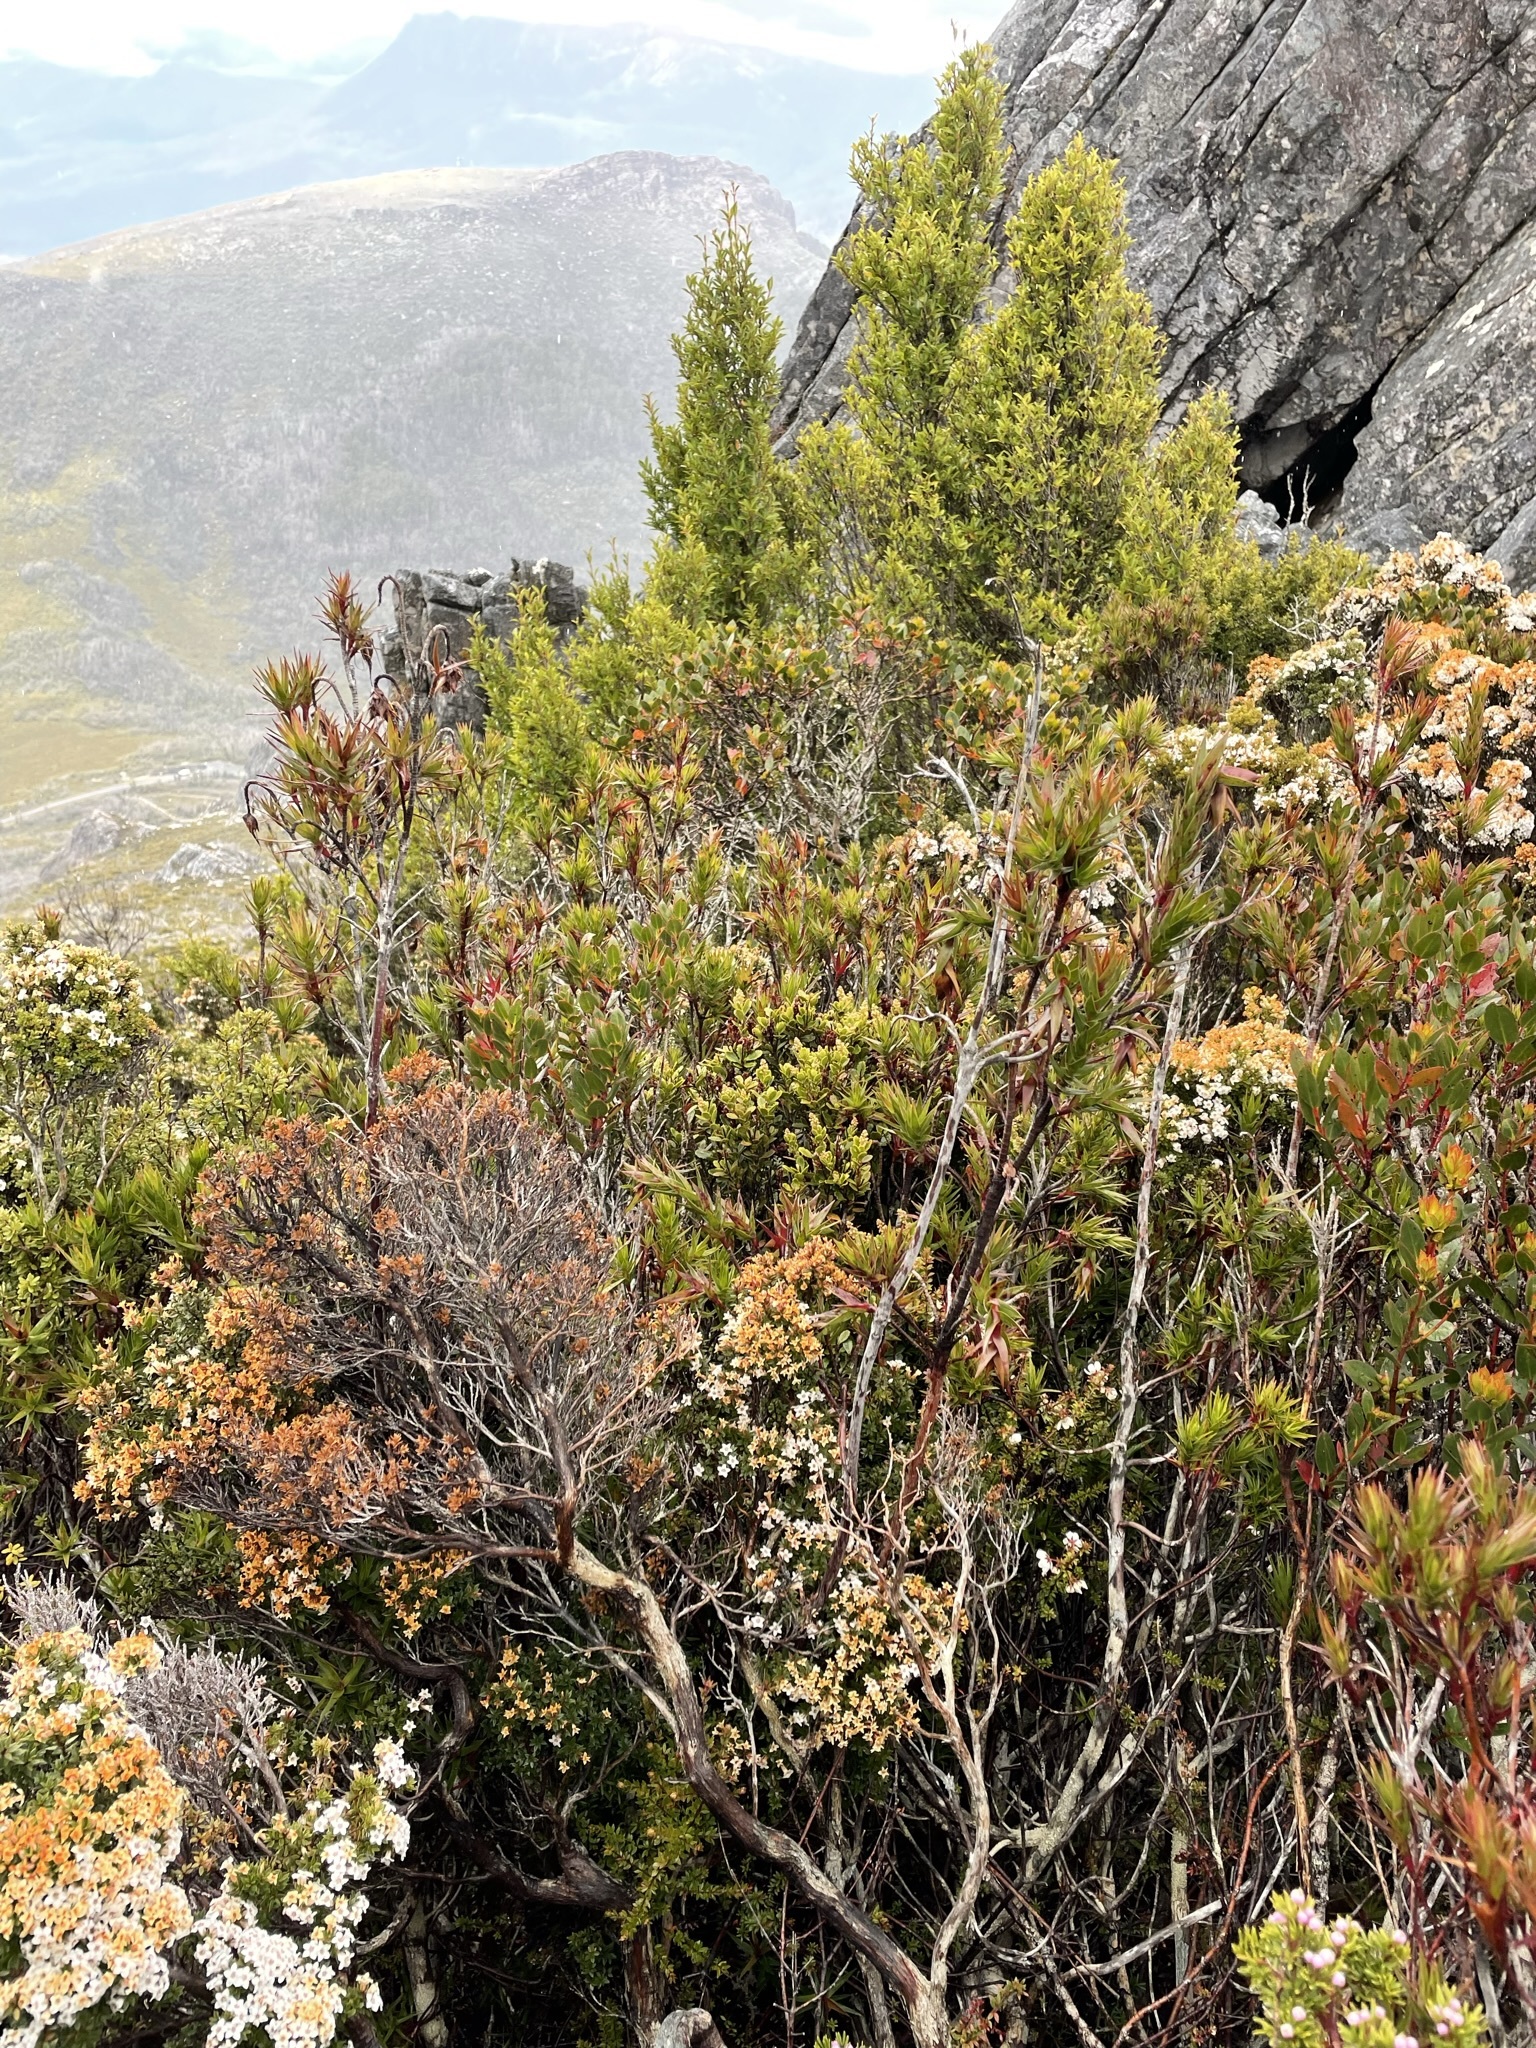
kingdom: Plantae
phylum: Tracheophyta
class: Magnoliopsida
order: Ericales
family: Ericaceae
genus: Dracophyllum
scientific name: Dracophyllum tasmanicum
